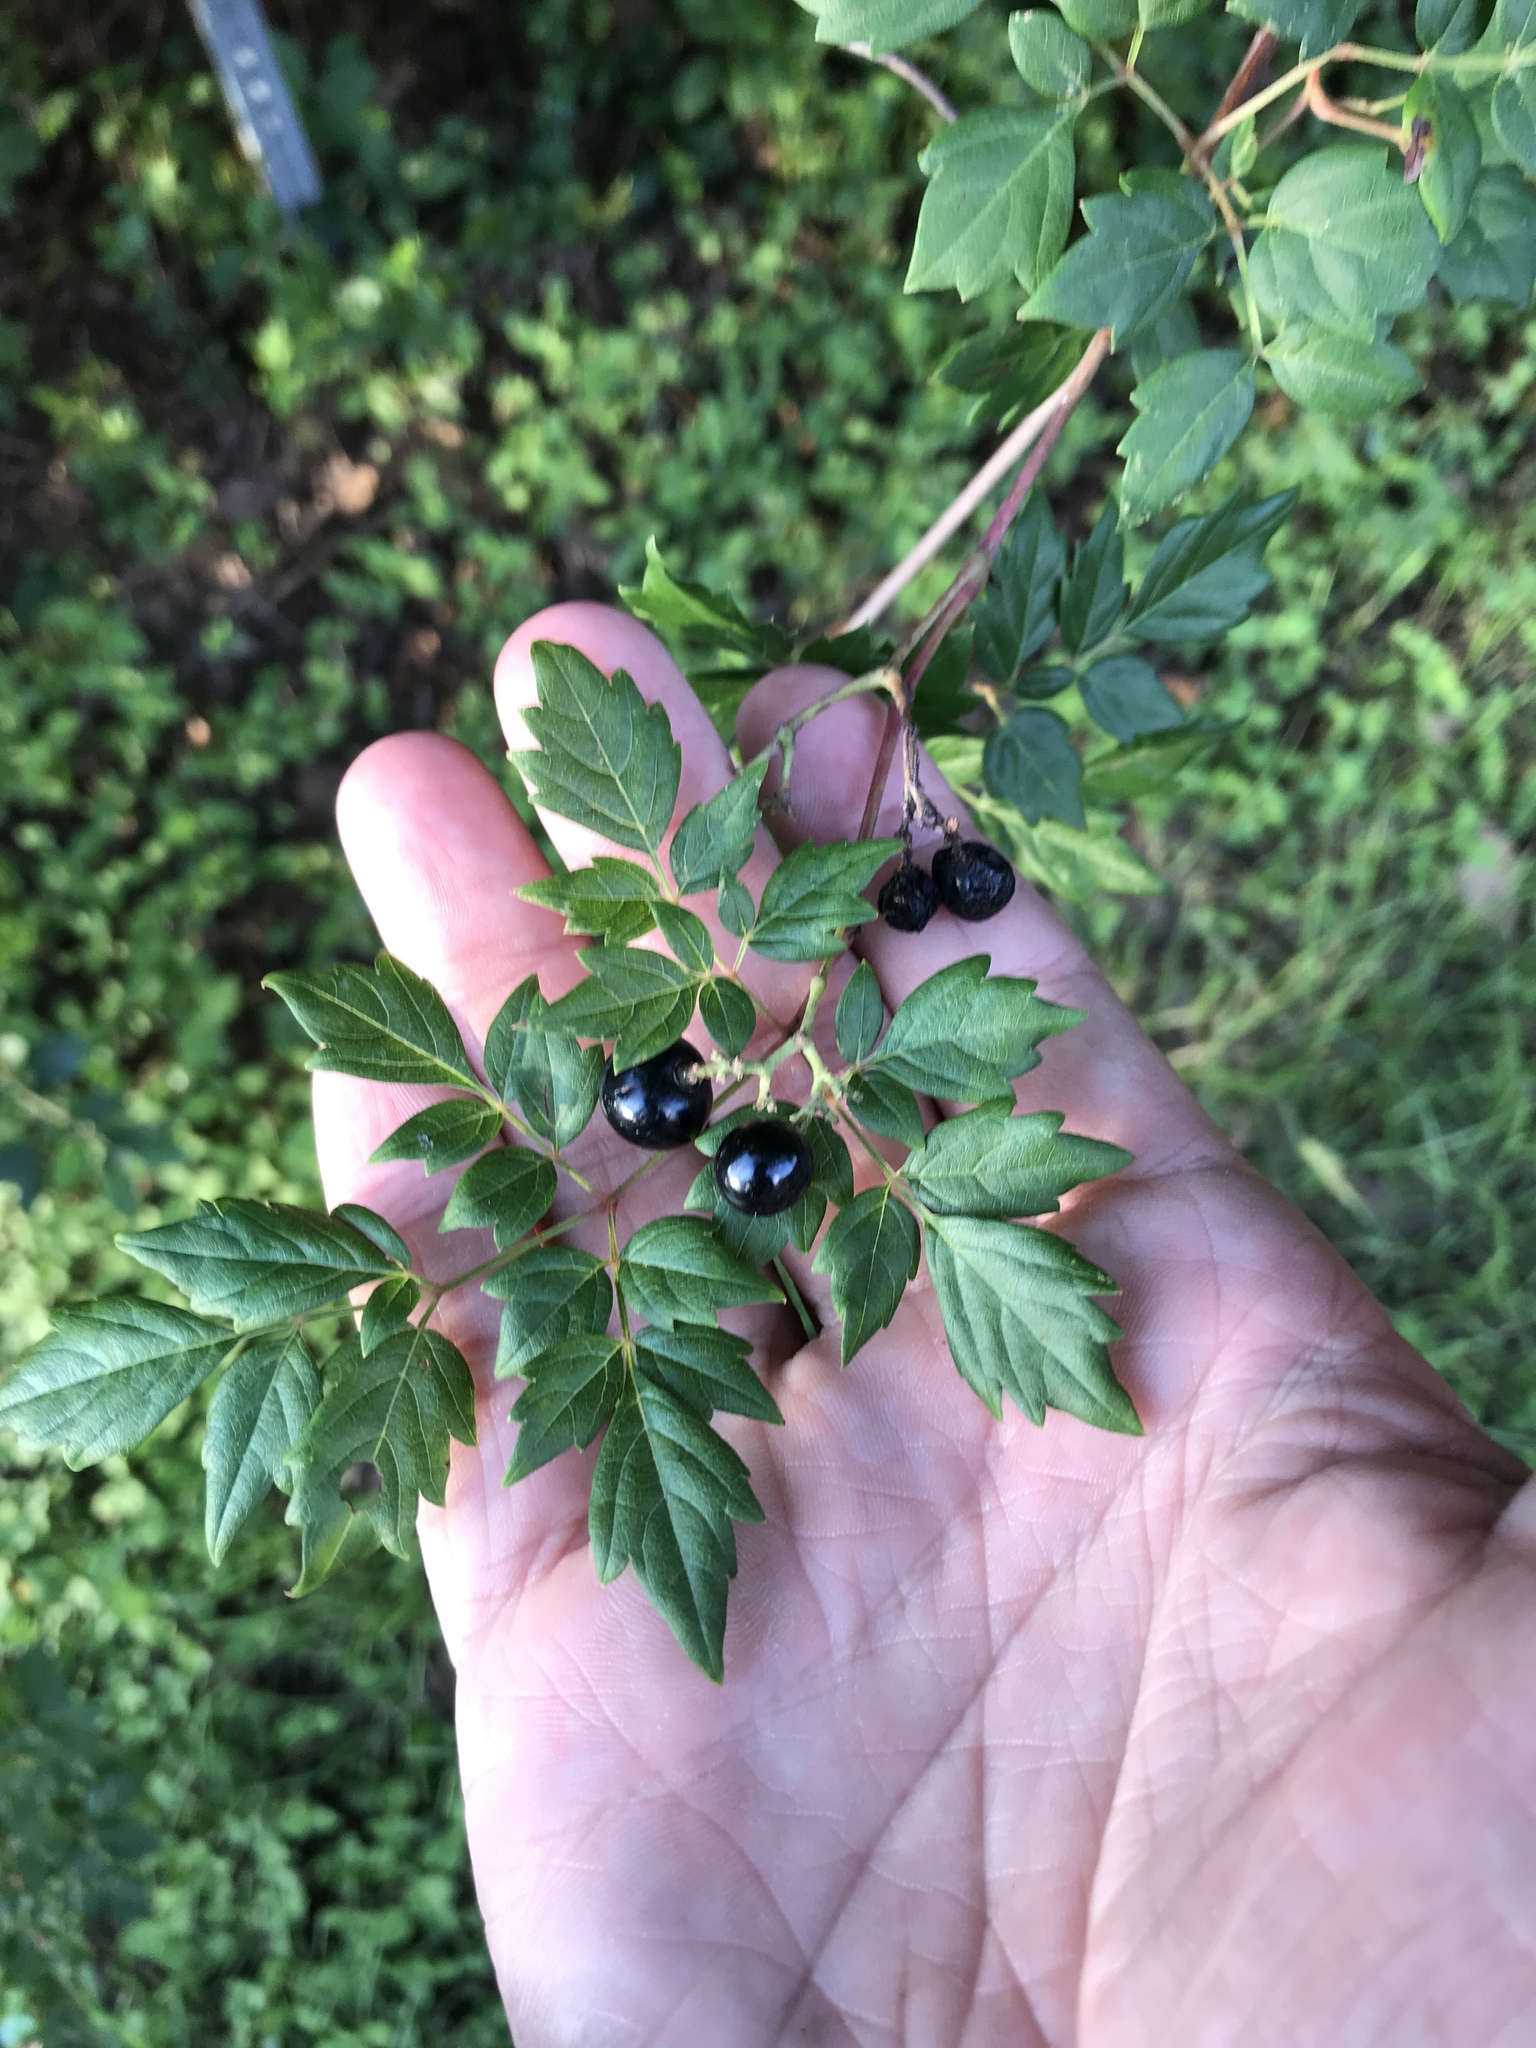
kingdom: Plantae
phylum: Tracheophyta
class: Magnoliopsida
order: Vitales
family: Vitaceae
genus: Nekemias
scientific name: Nekemias arborea
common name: Peppervine
